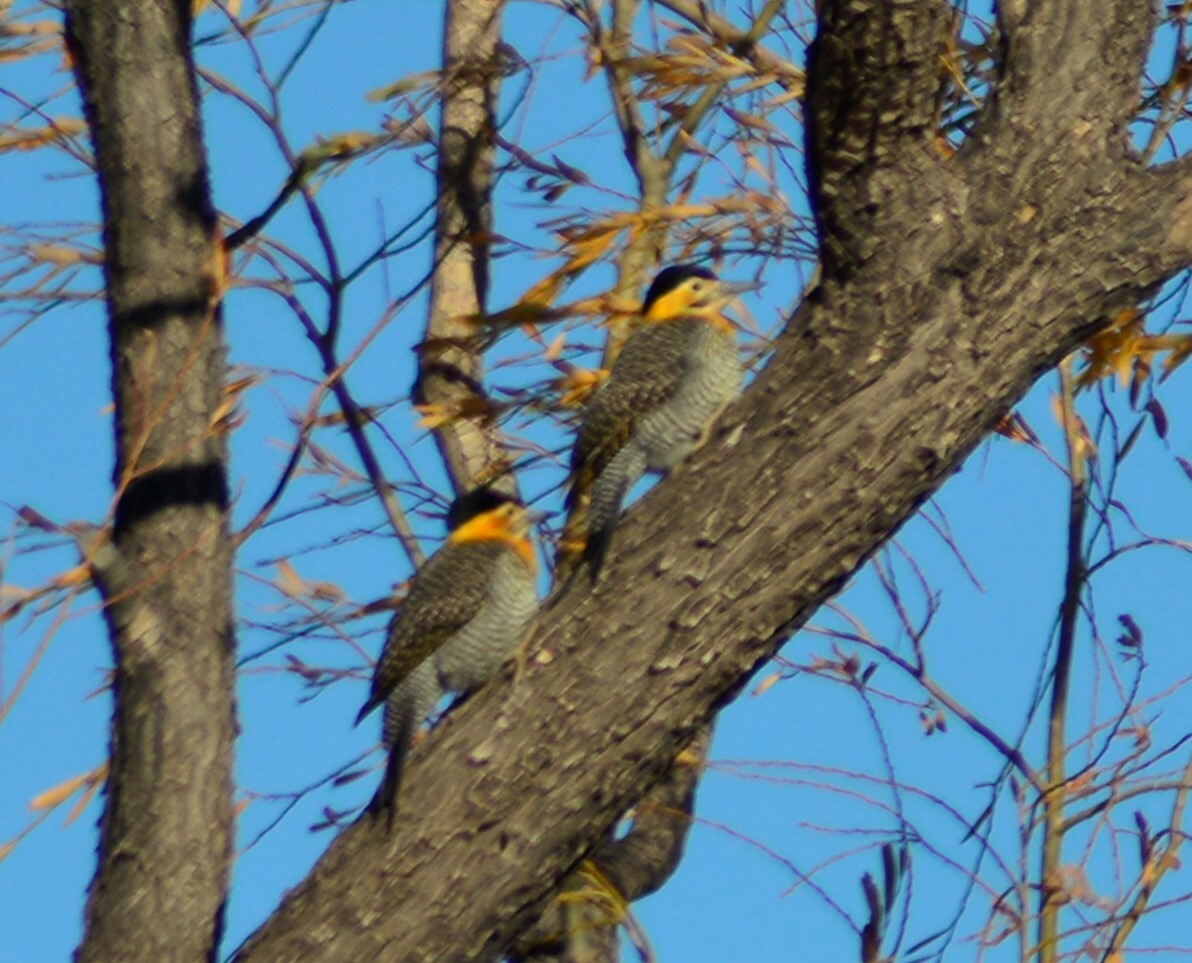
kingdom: Animalia
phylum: Chordata
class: Aves
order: Piciformes
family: Picidae
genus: Colaptes
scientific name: Colaptes campestris
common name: Campo flicker
